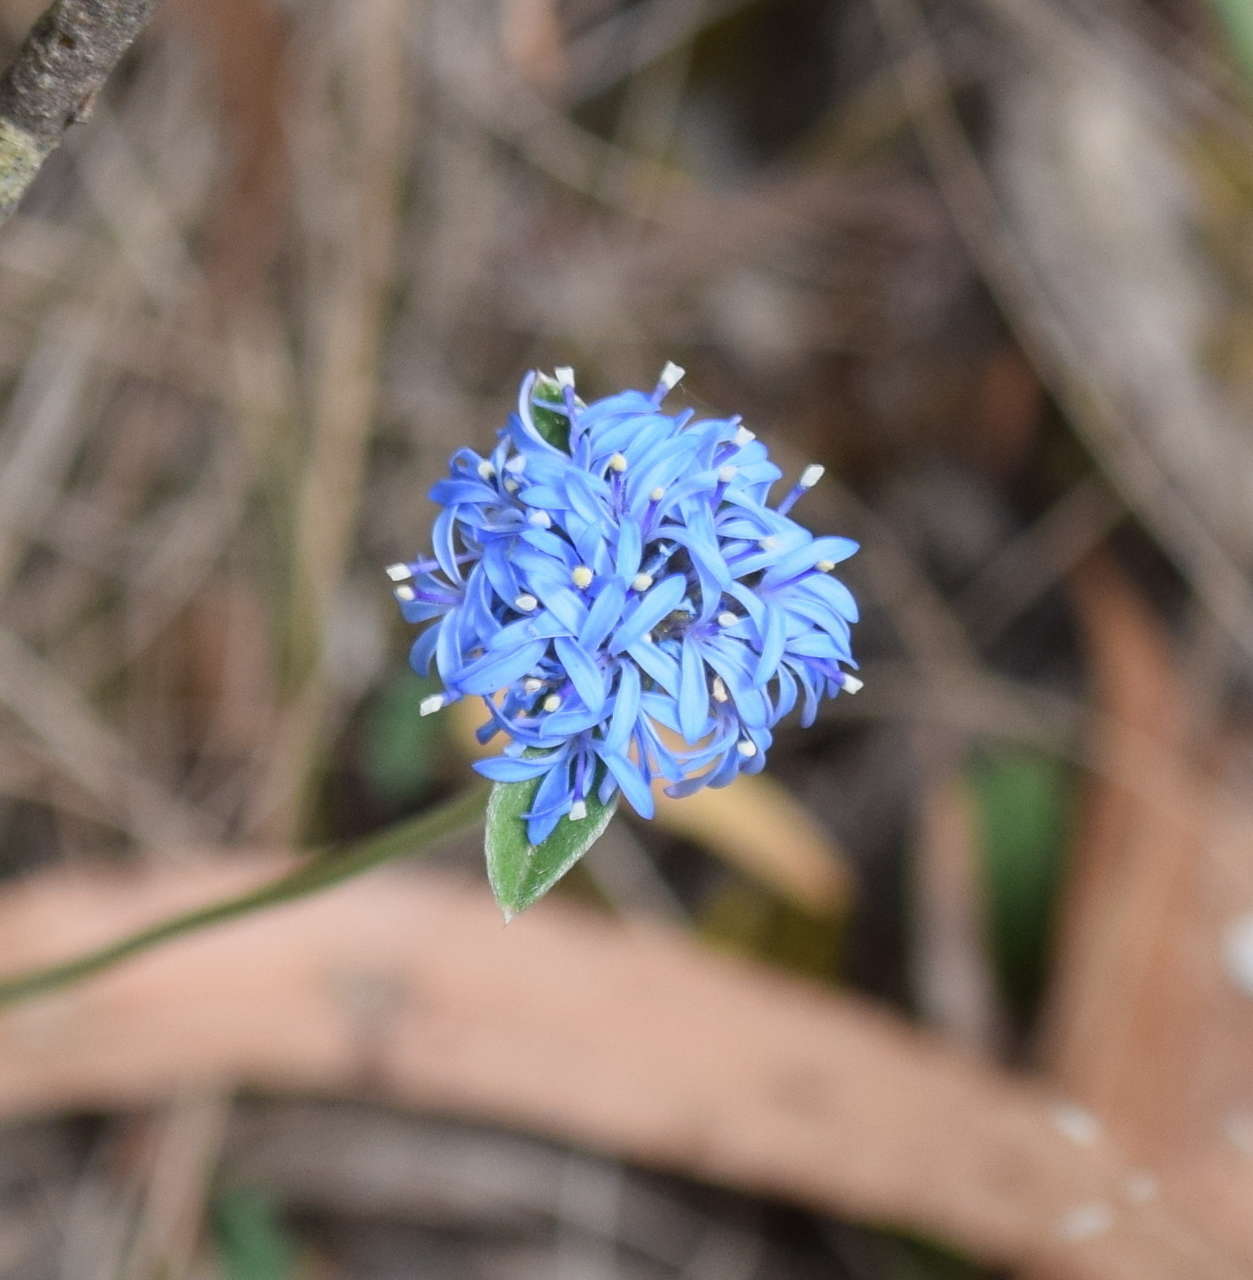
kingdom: Plantae
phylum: Tracheophyta
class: Magnoliopsida
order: Asterales
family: Goodeniaceae
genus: Brunonia
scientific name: Brunonia australis
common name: Blue pincushion
